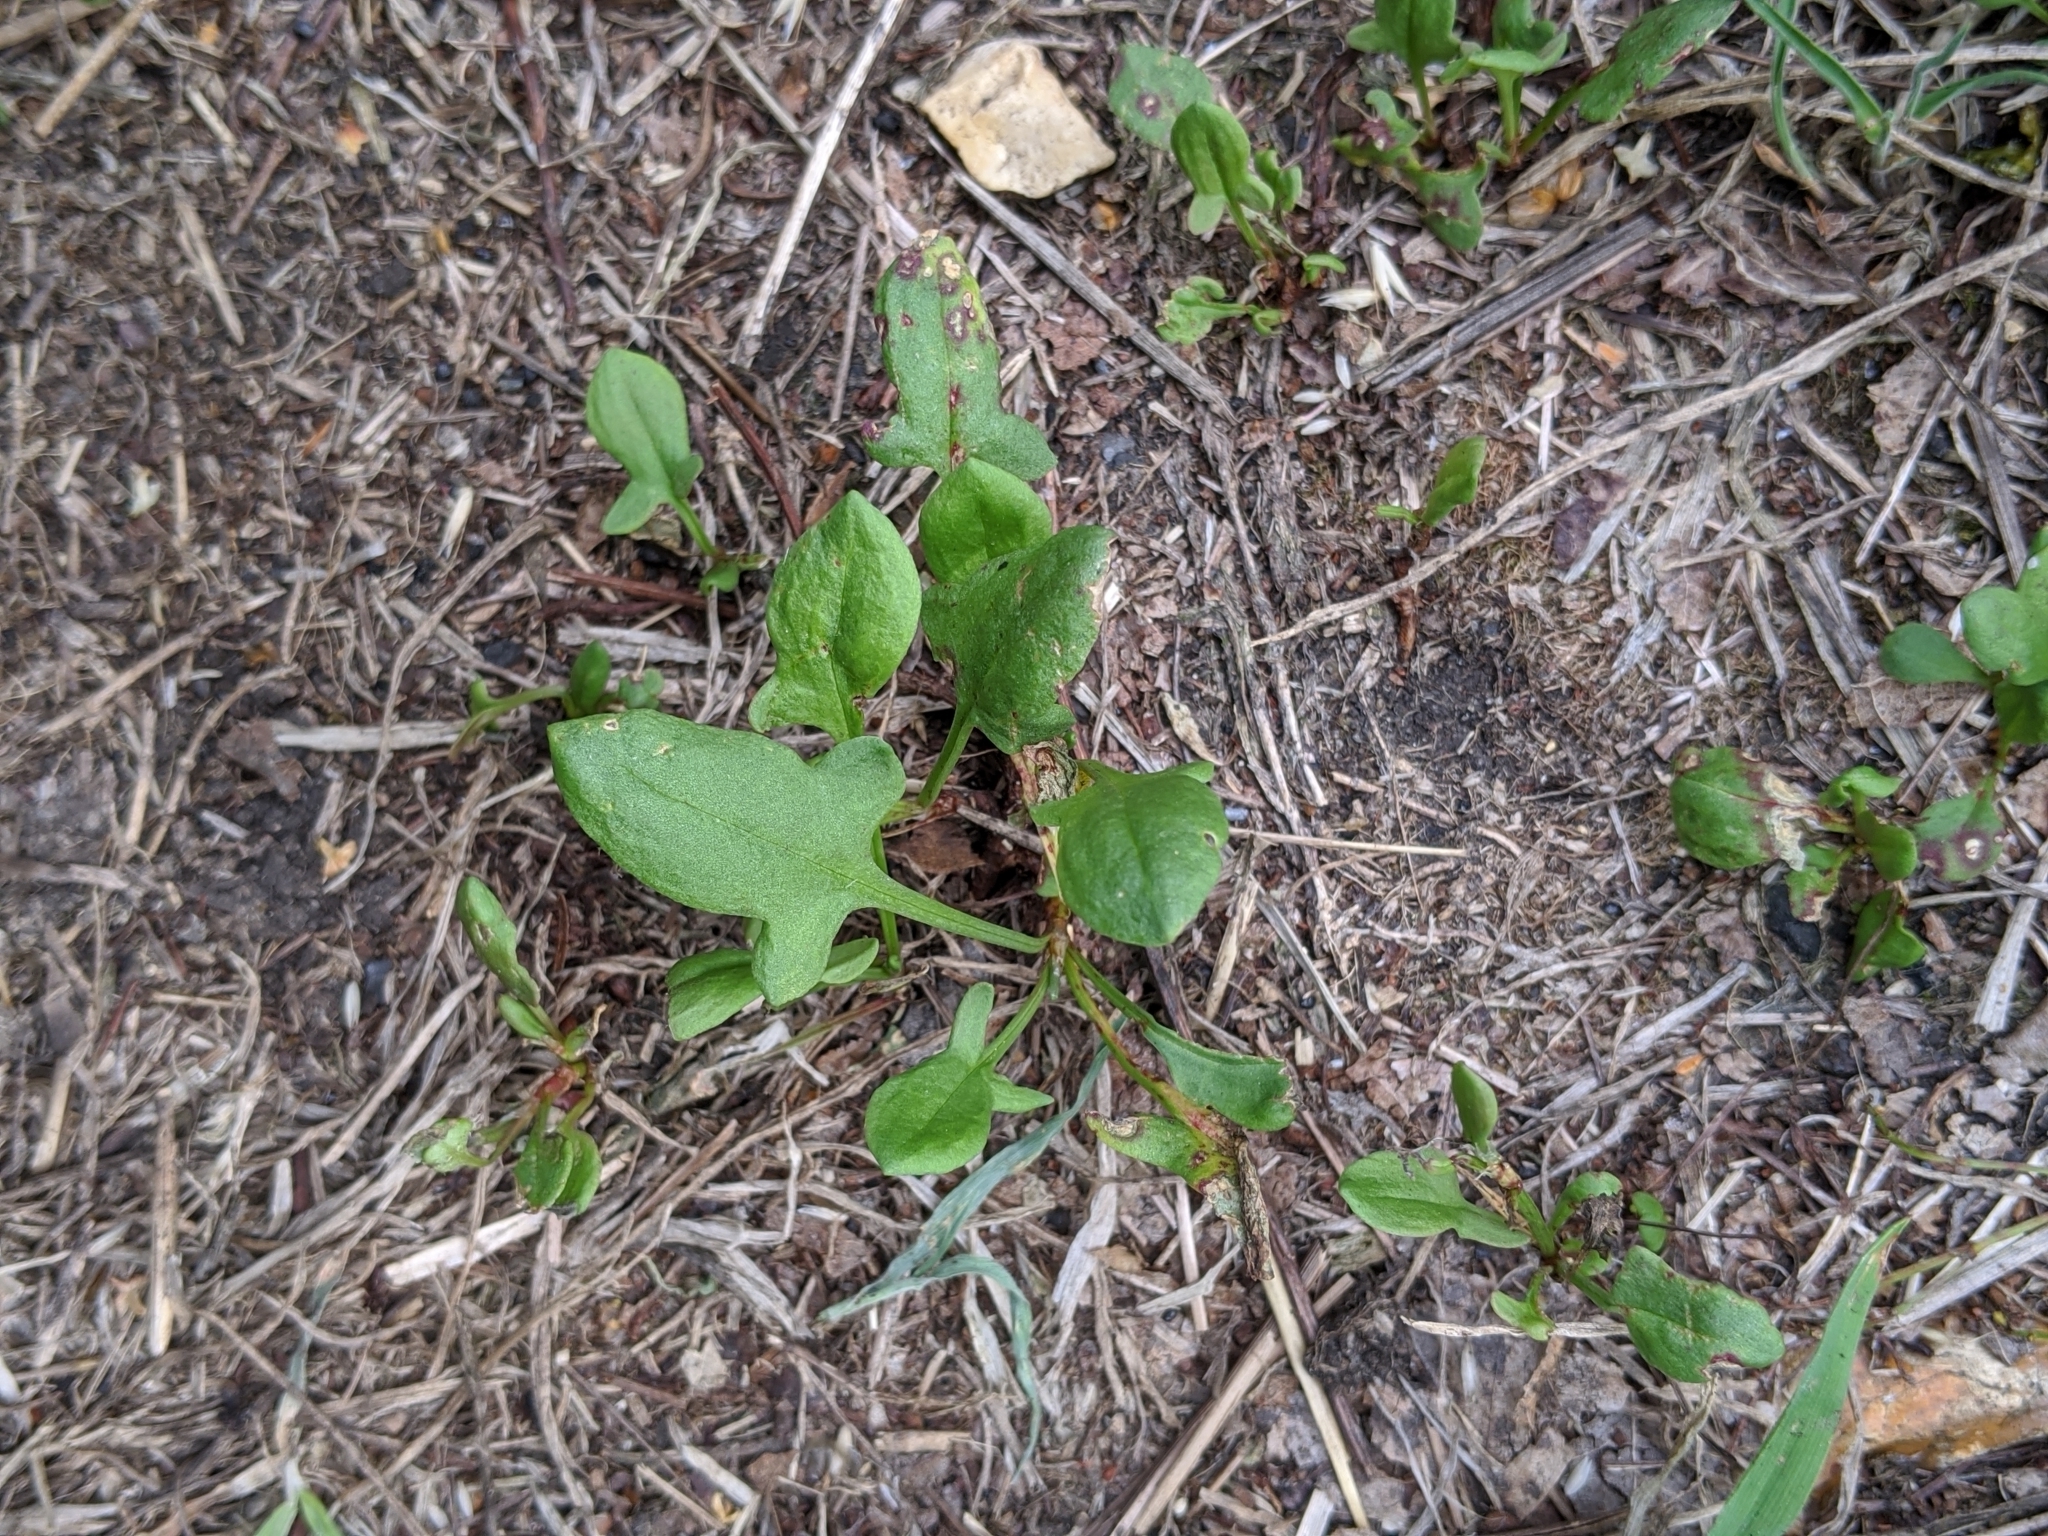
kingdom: Plantae
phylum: Tracheophyta
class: Magnoliopsida
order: Caryophyllales
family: Polygonaceae
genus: Rumex
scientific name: Rumex acetosella
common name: Common sheep sorrel
